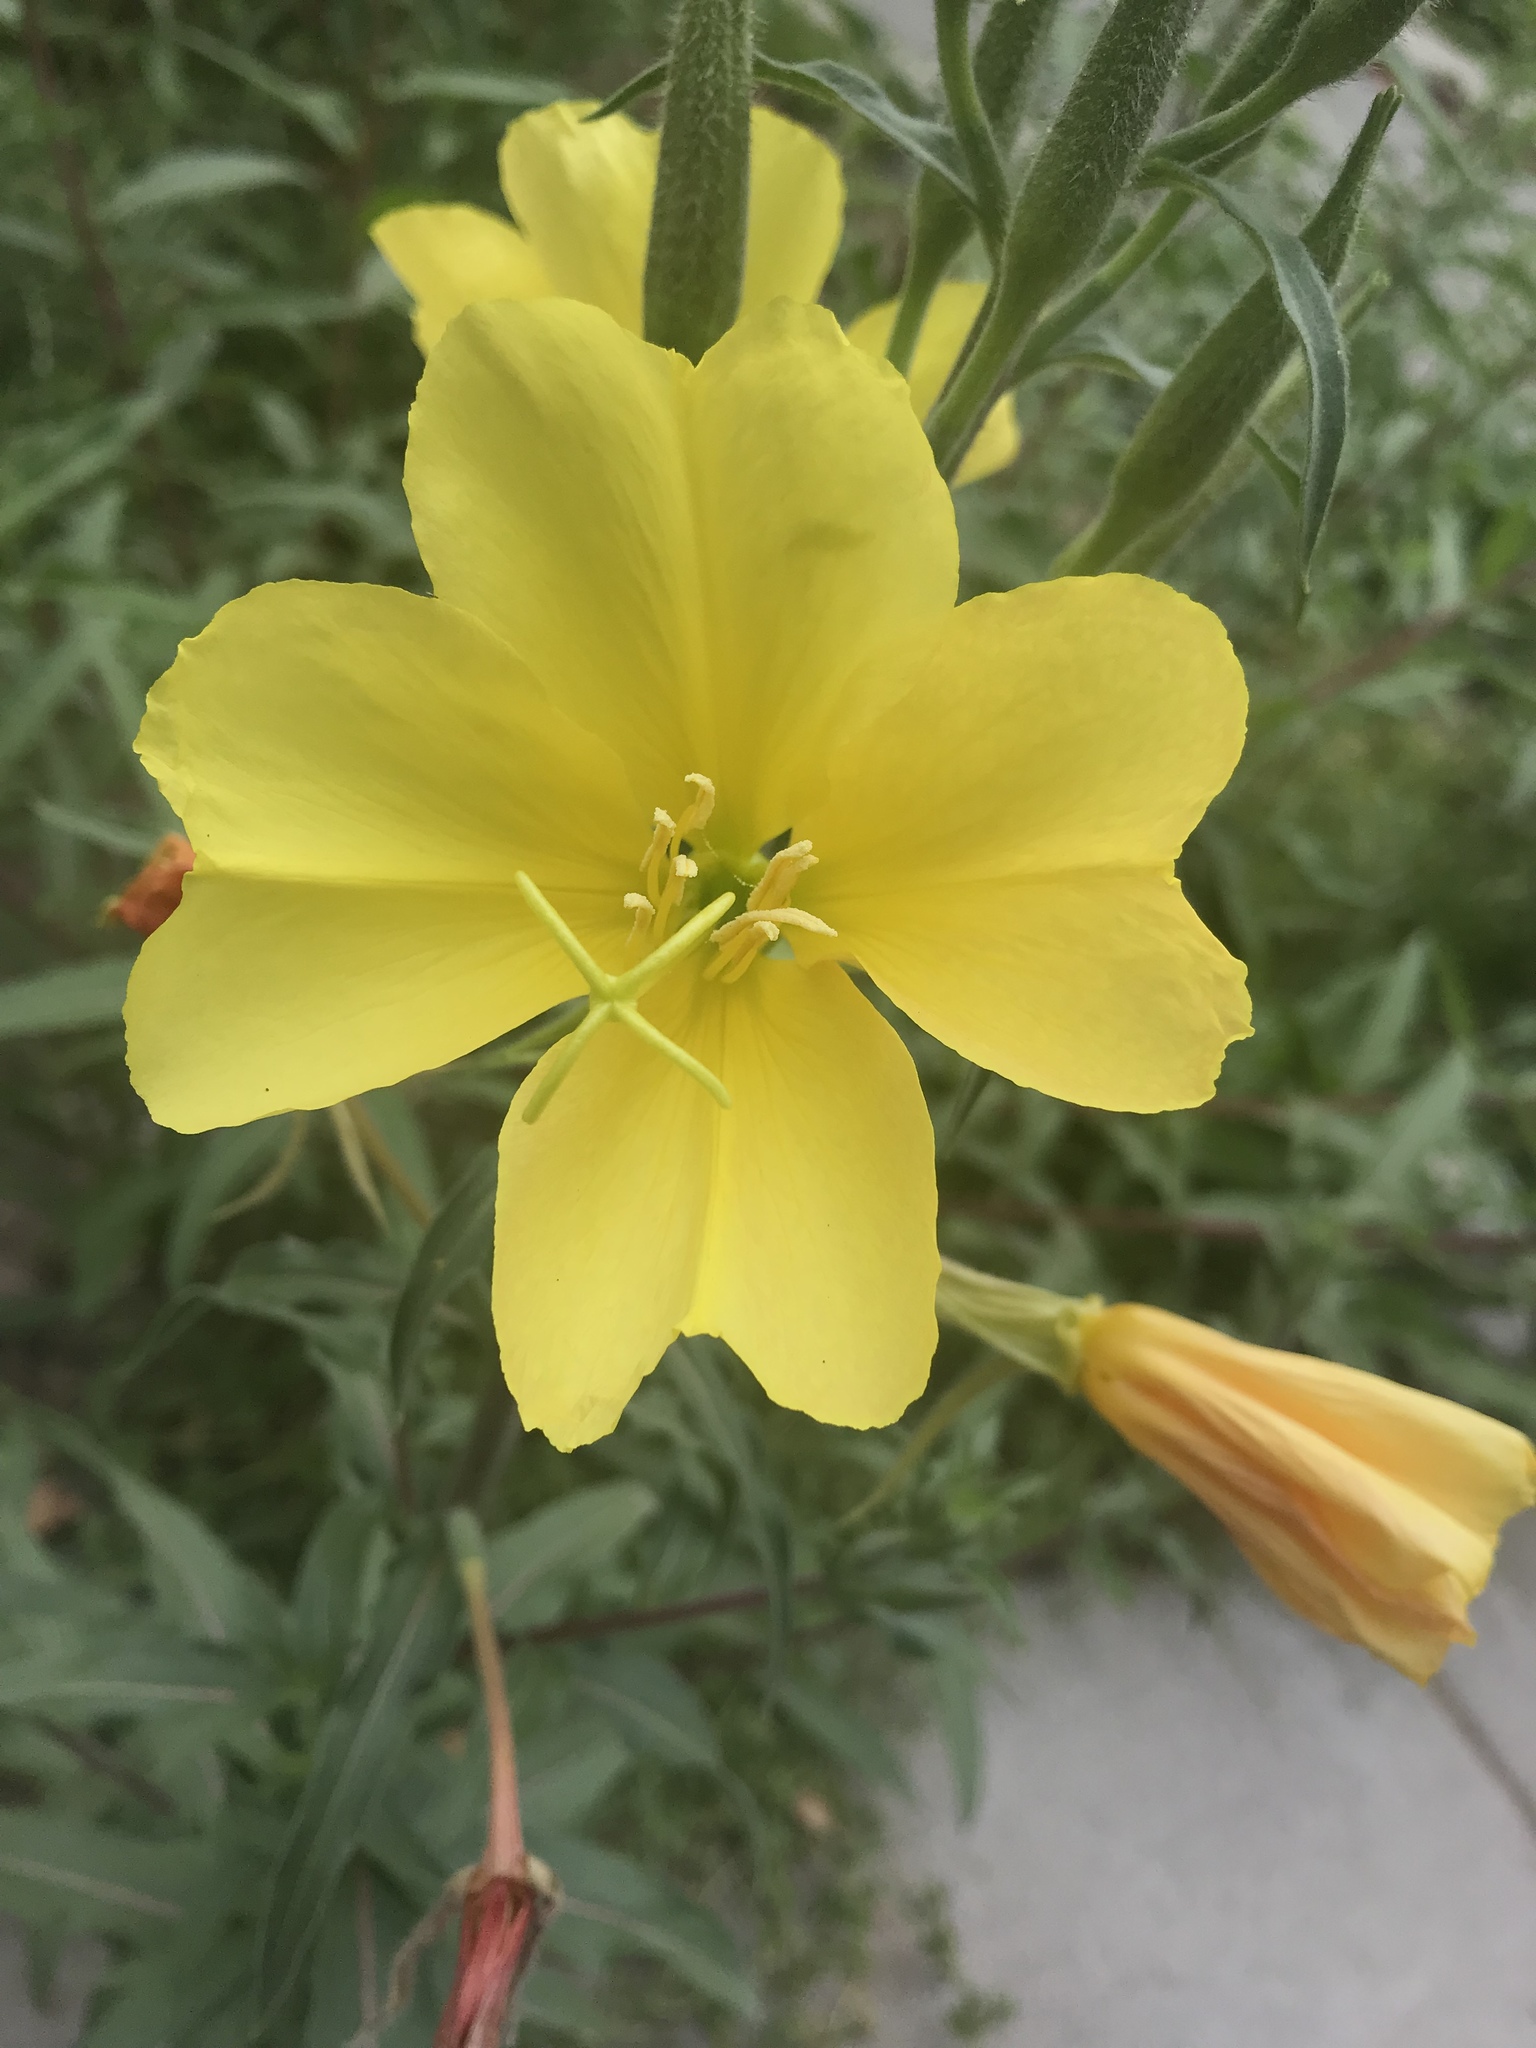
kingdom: Plantae
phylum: Tracheophyta
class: Magnoliopsida
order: Myrtales
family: Onagraceae
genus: Oenothera
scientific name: Oenothera elata
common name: Hooker's evening-primrose
